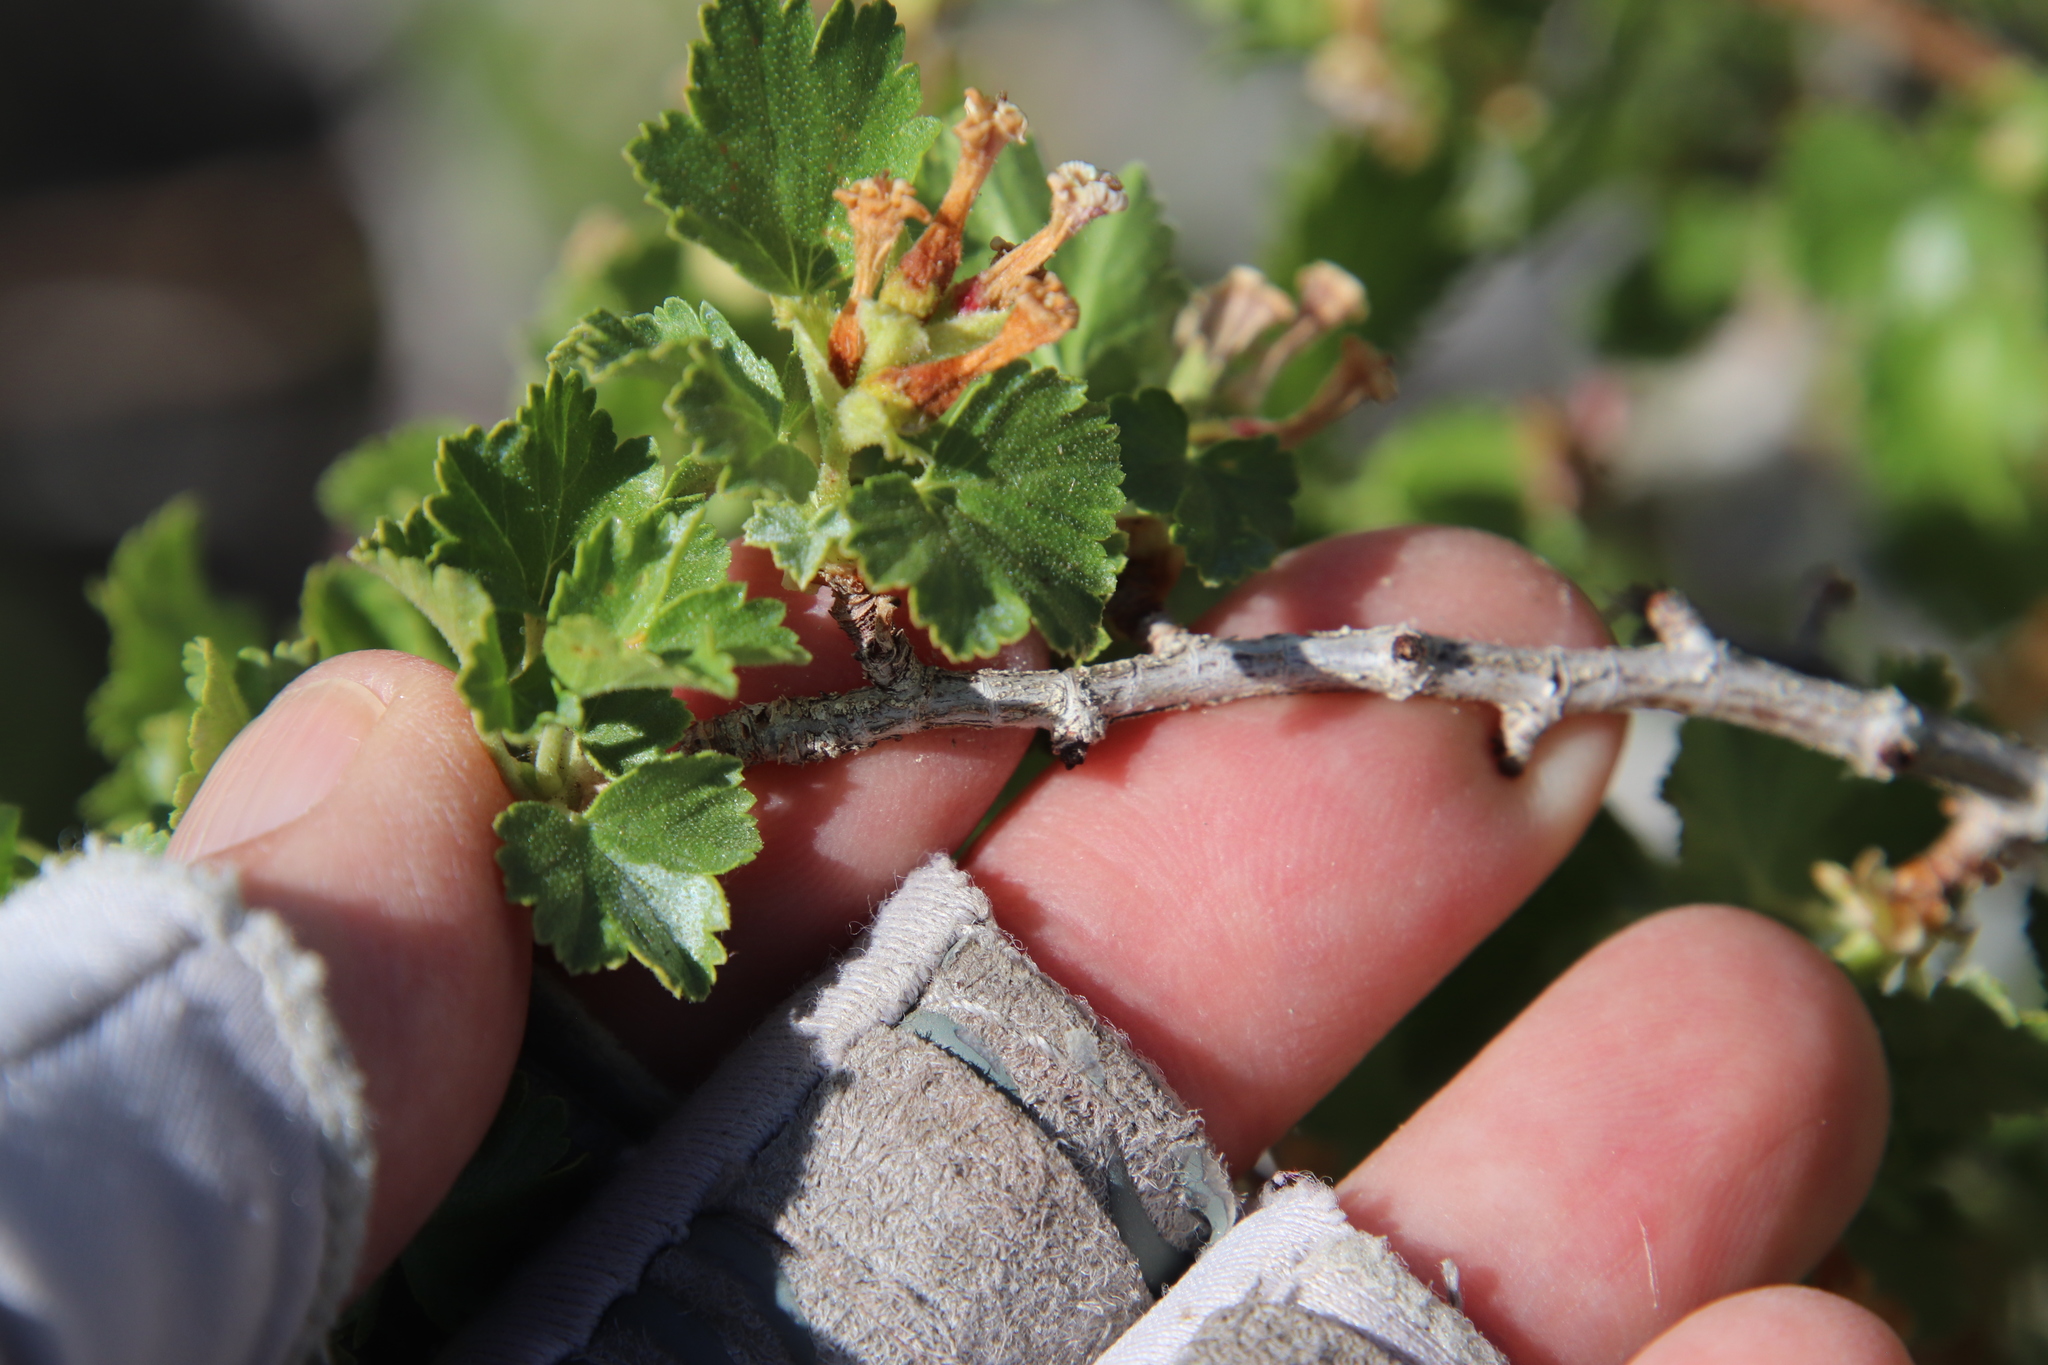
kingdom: Plantae
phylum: Tracheophyta
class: Magnoliopsida
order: Saxifragales
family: Grossulariaceae
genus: Ribes
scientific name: Ribes cereum
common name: Wax currant
